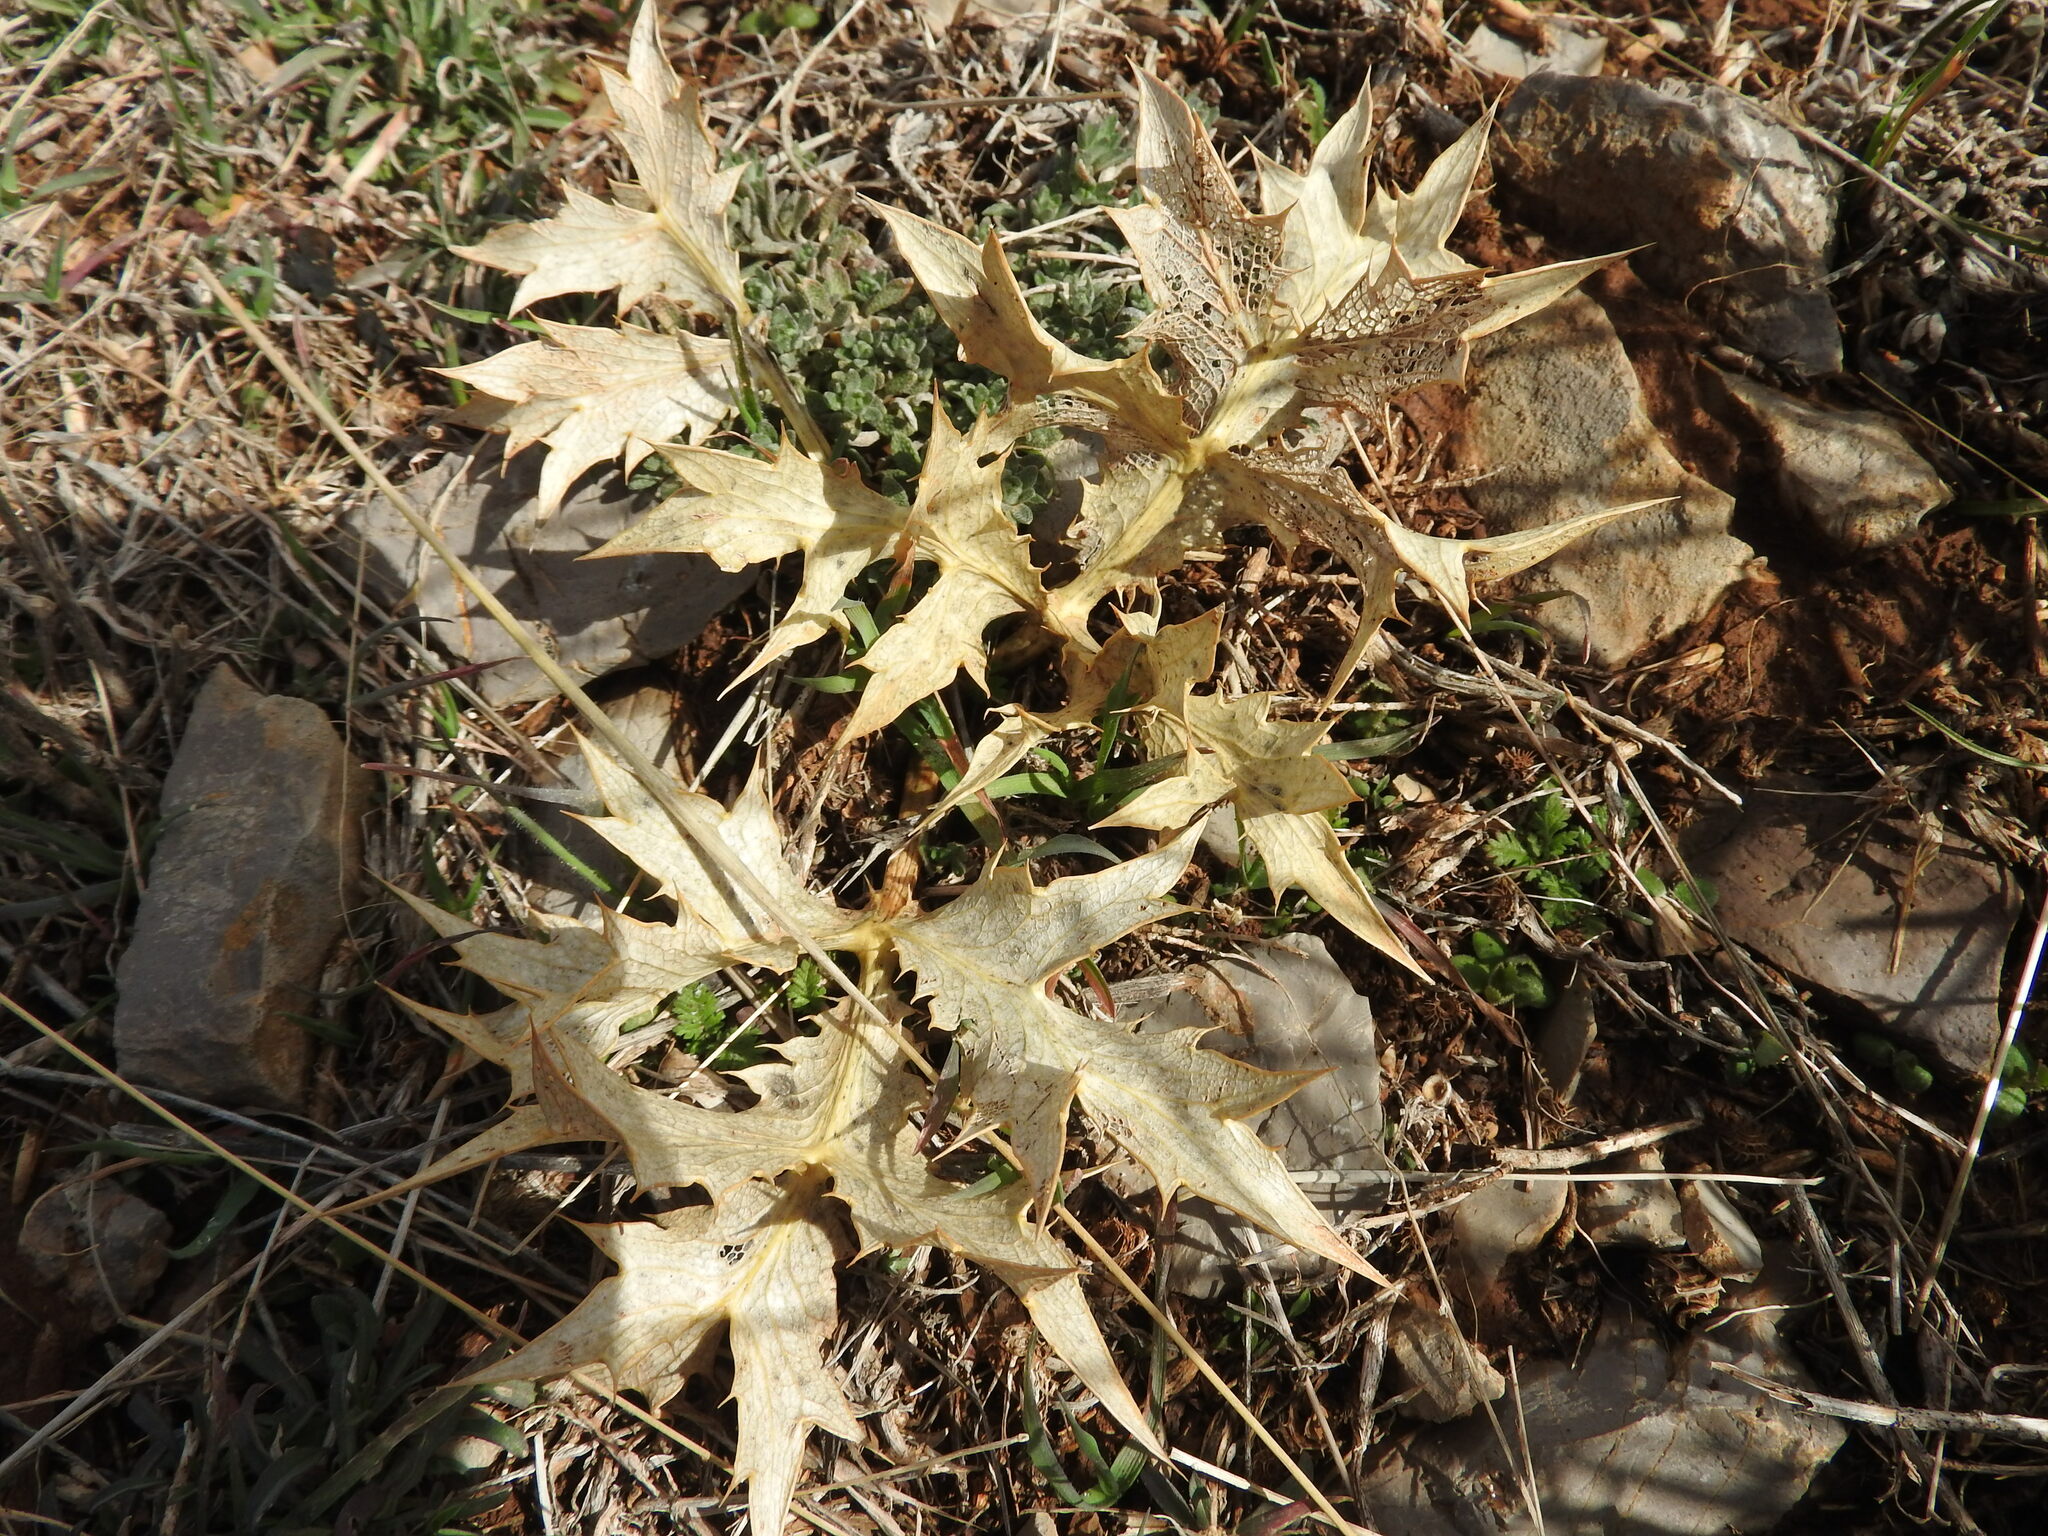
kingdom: Plantae
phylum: Tracheophyta
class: Magnoliopsida
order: Apiales
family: Apiaceae
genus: Eryngium
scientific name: Eryngium campestre
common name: Field eryngo
